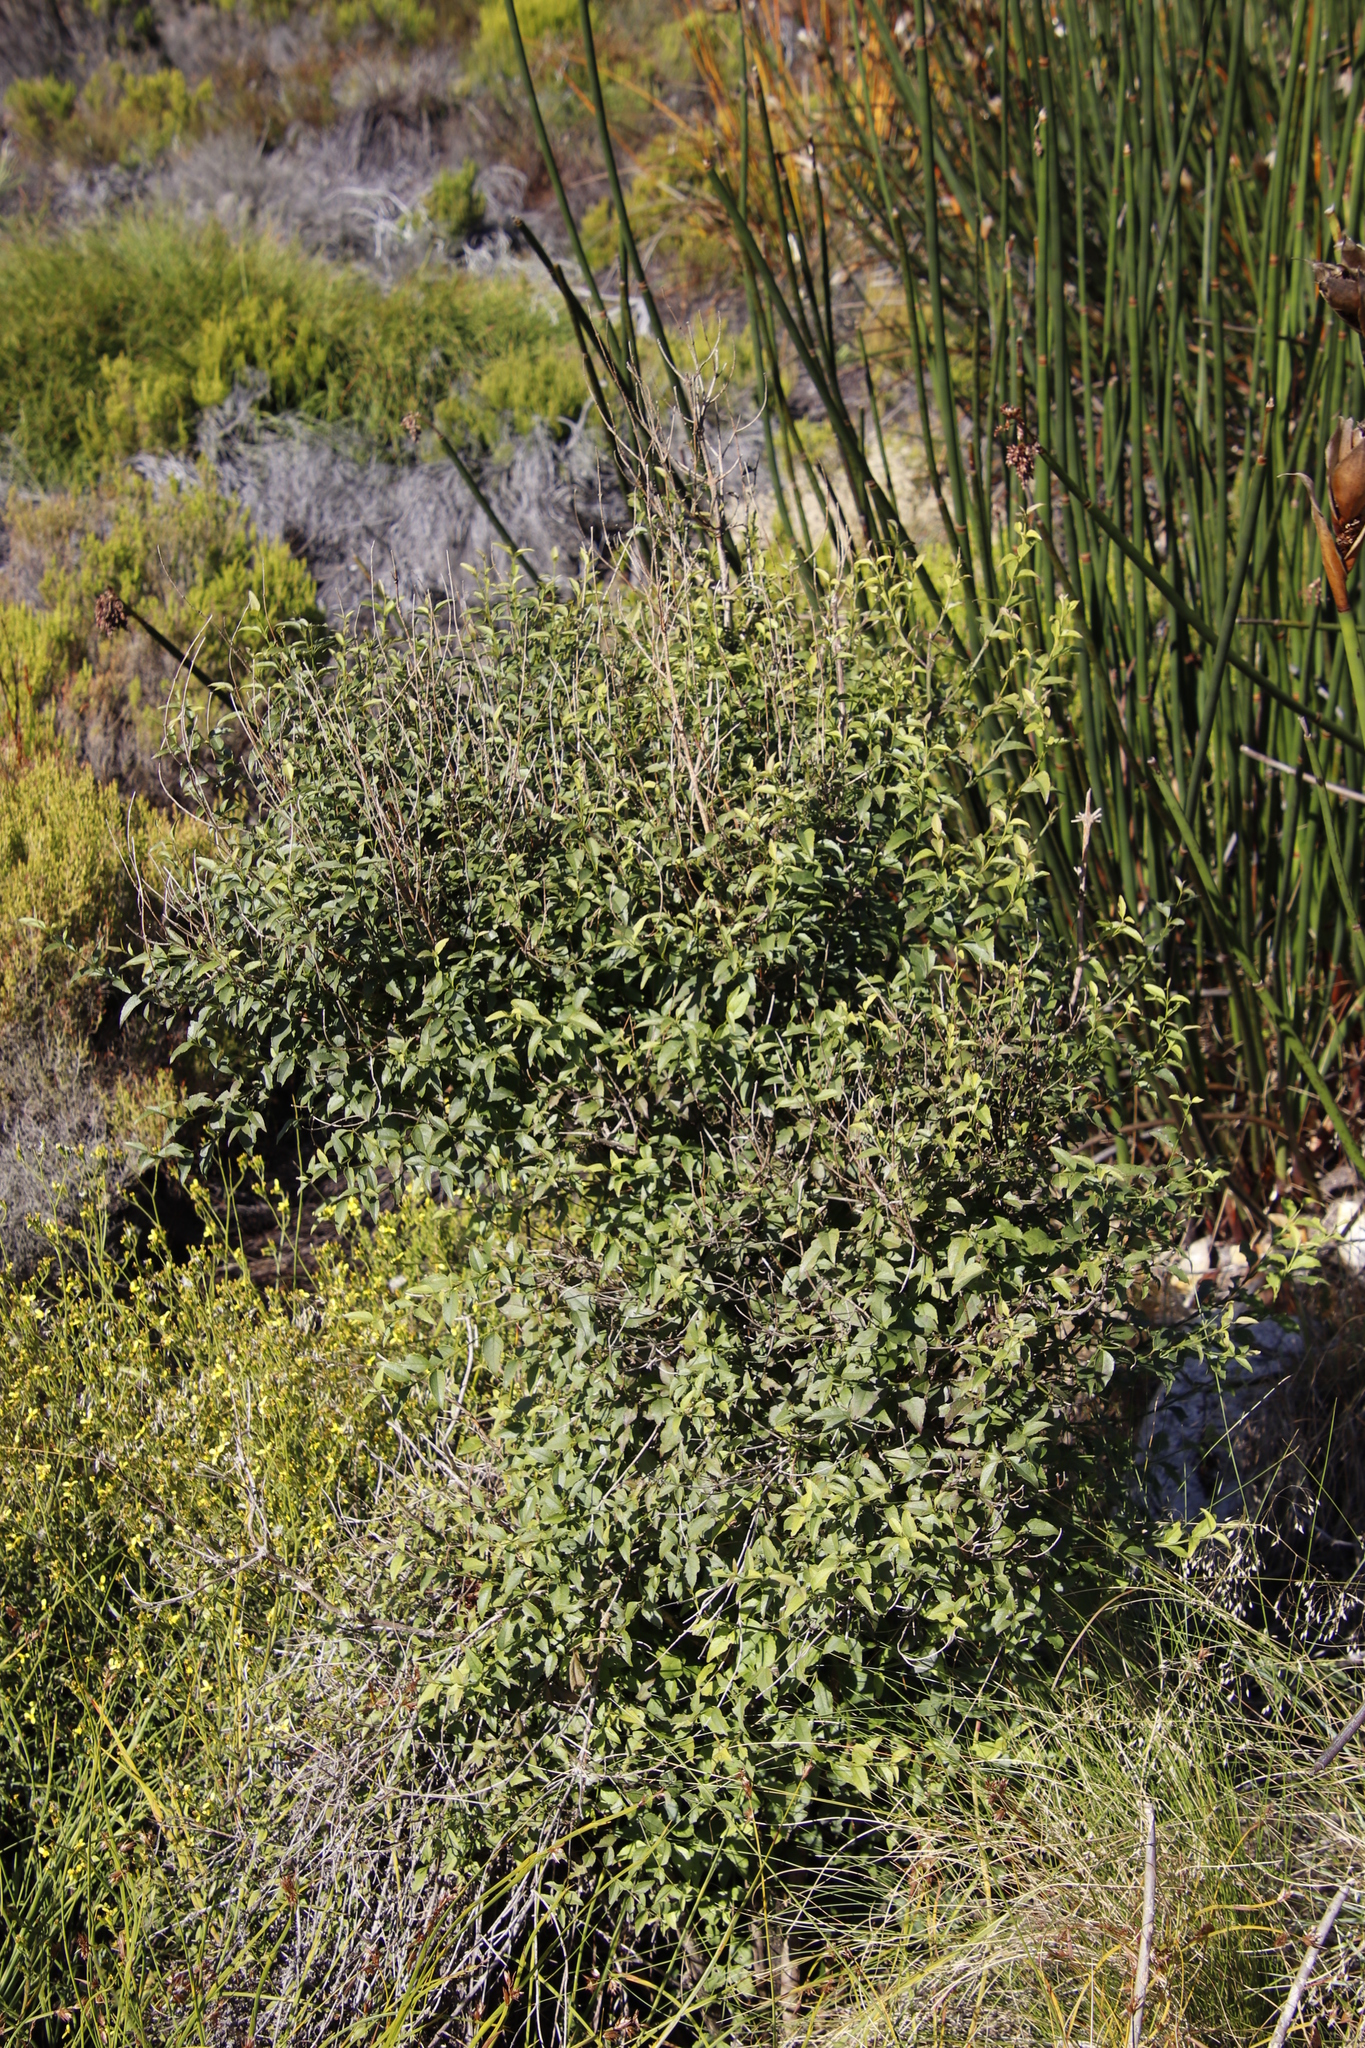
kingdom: Plantae
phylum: Tracheophyta
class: Magnoliopsida
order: Lamiales
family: Stilbaceae
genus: Halleria
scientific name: Halleria lucida
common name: Tree fuschia
